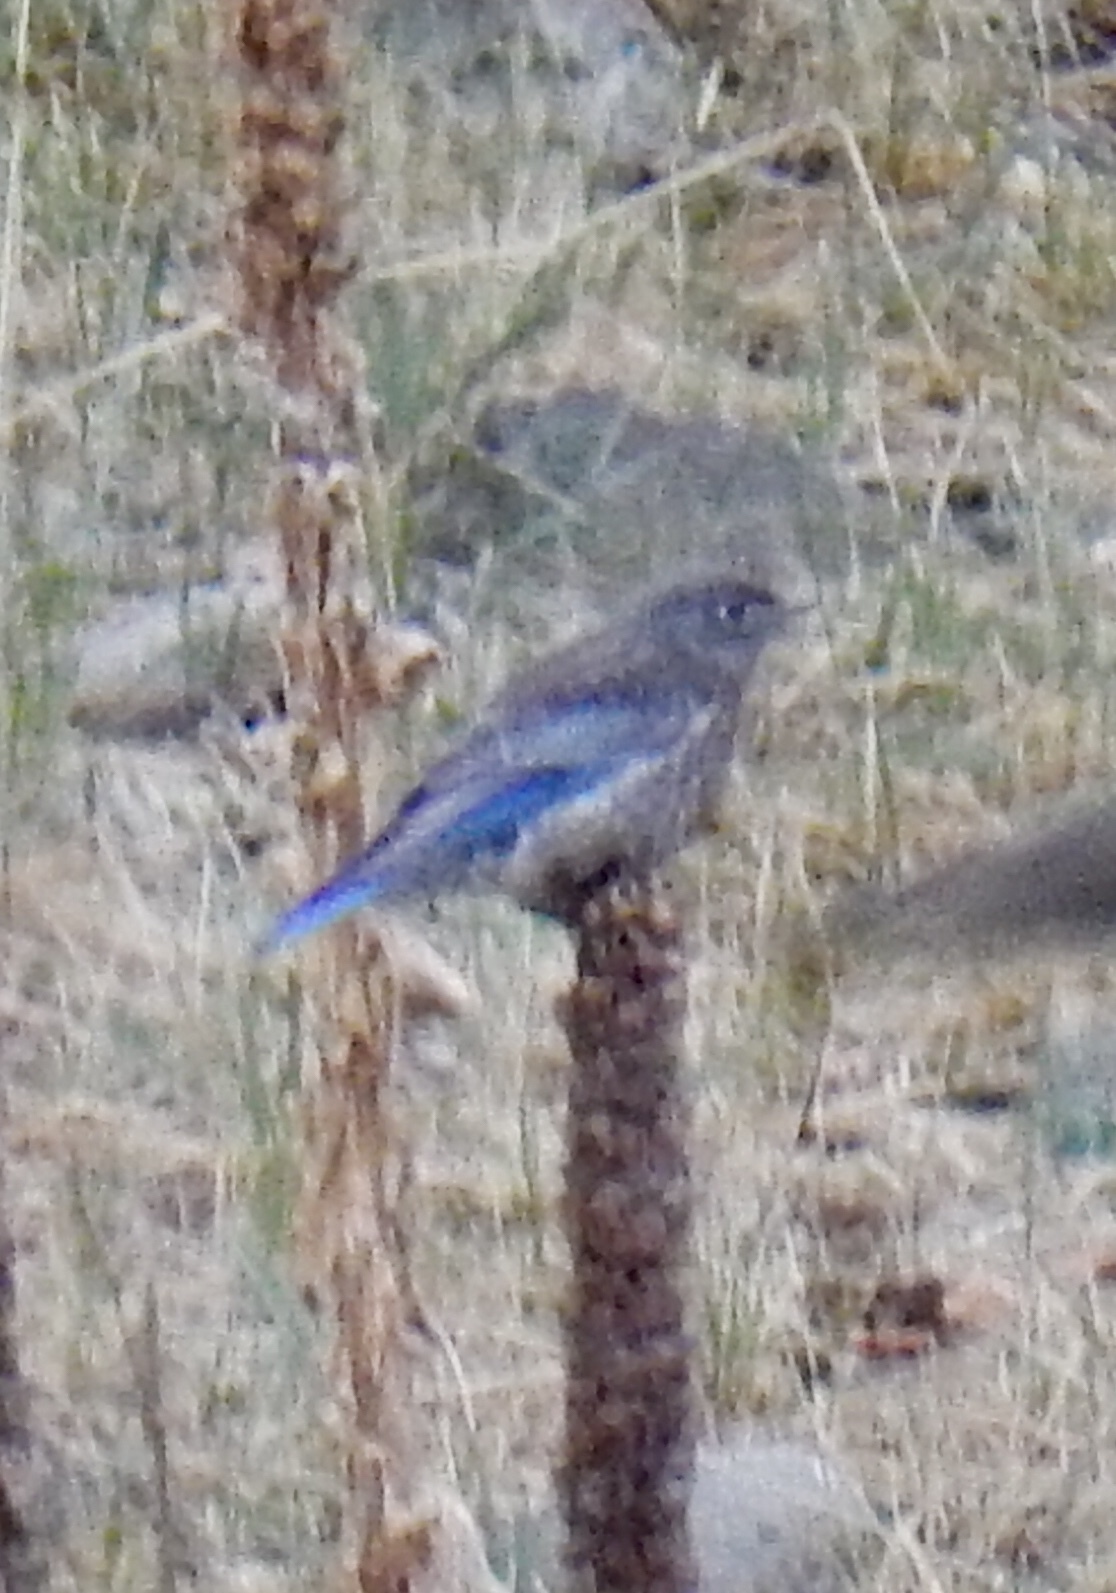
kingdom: Animalia
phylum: Chordata
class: Aves
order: Passeriformes
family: Turdidae
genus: Sialia
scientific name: Sialia mexicana
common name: Western bluebird
